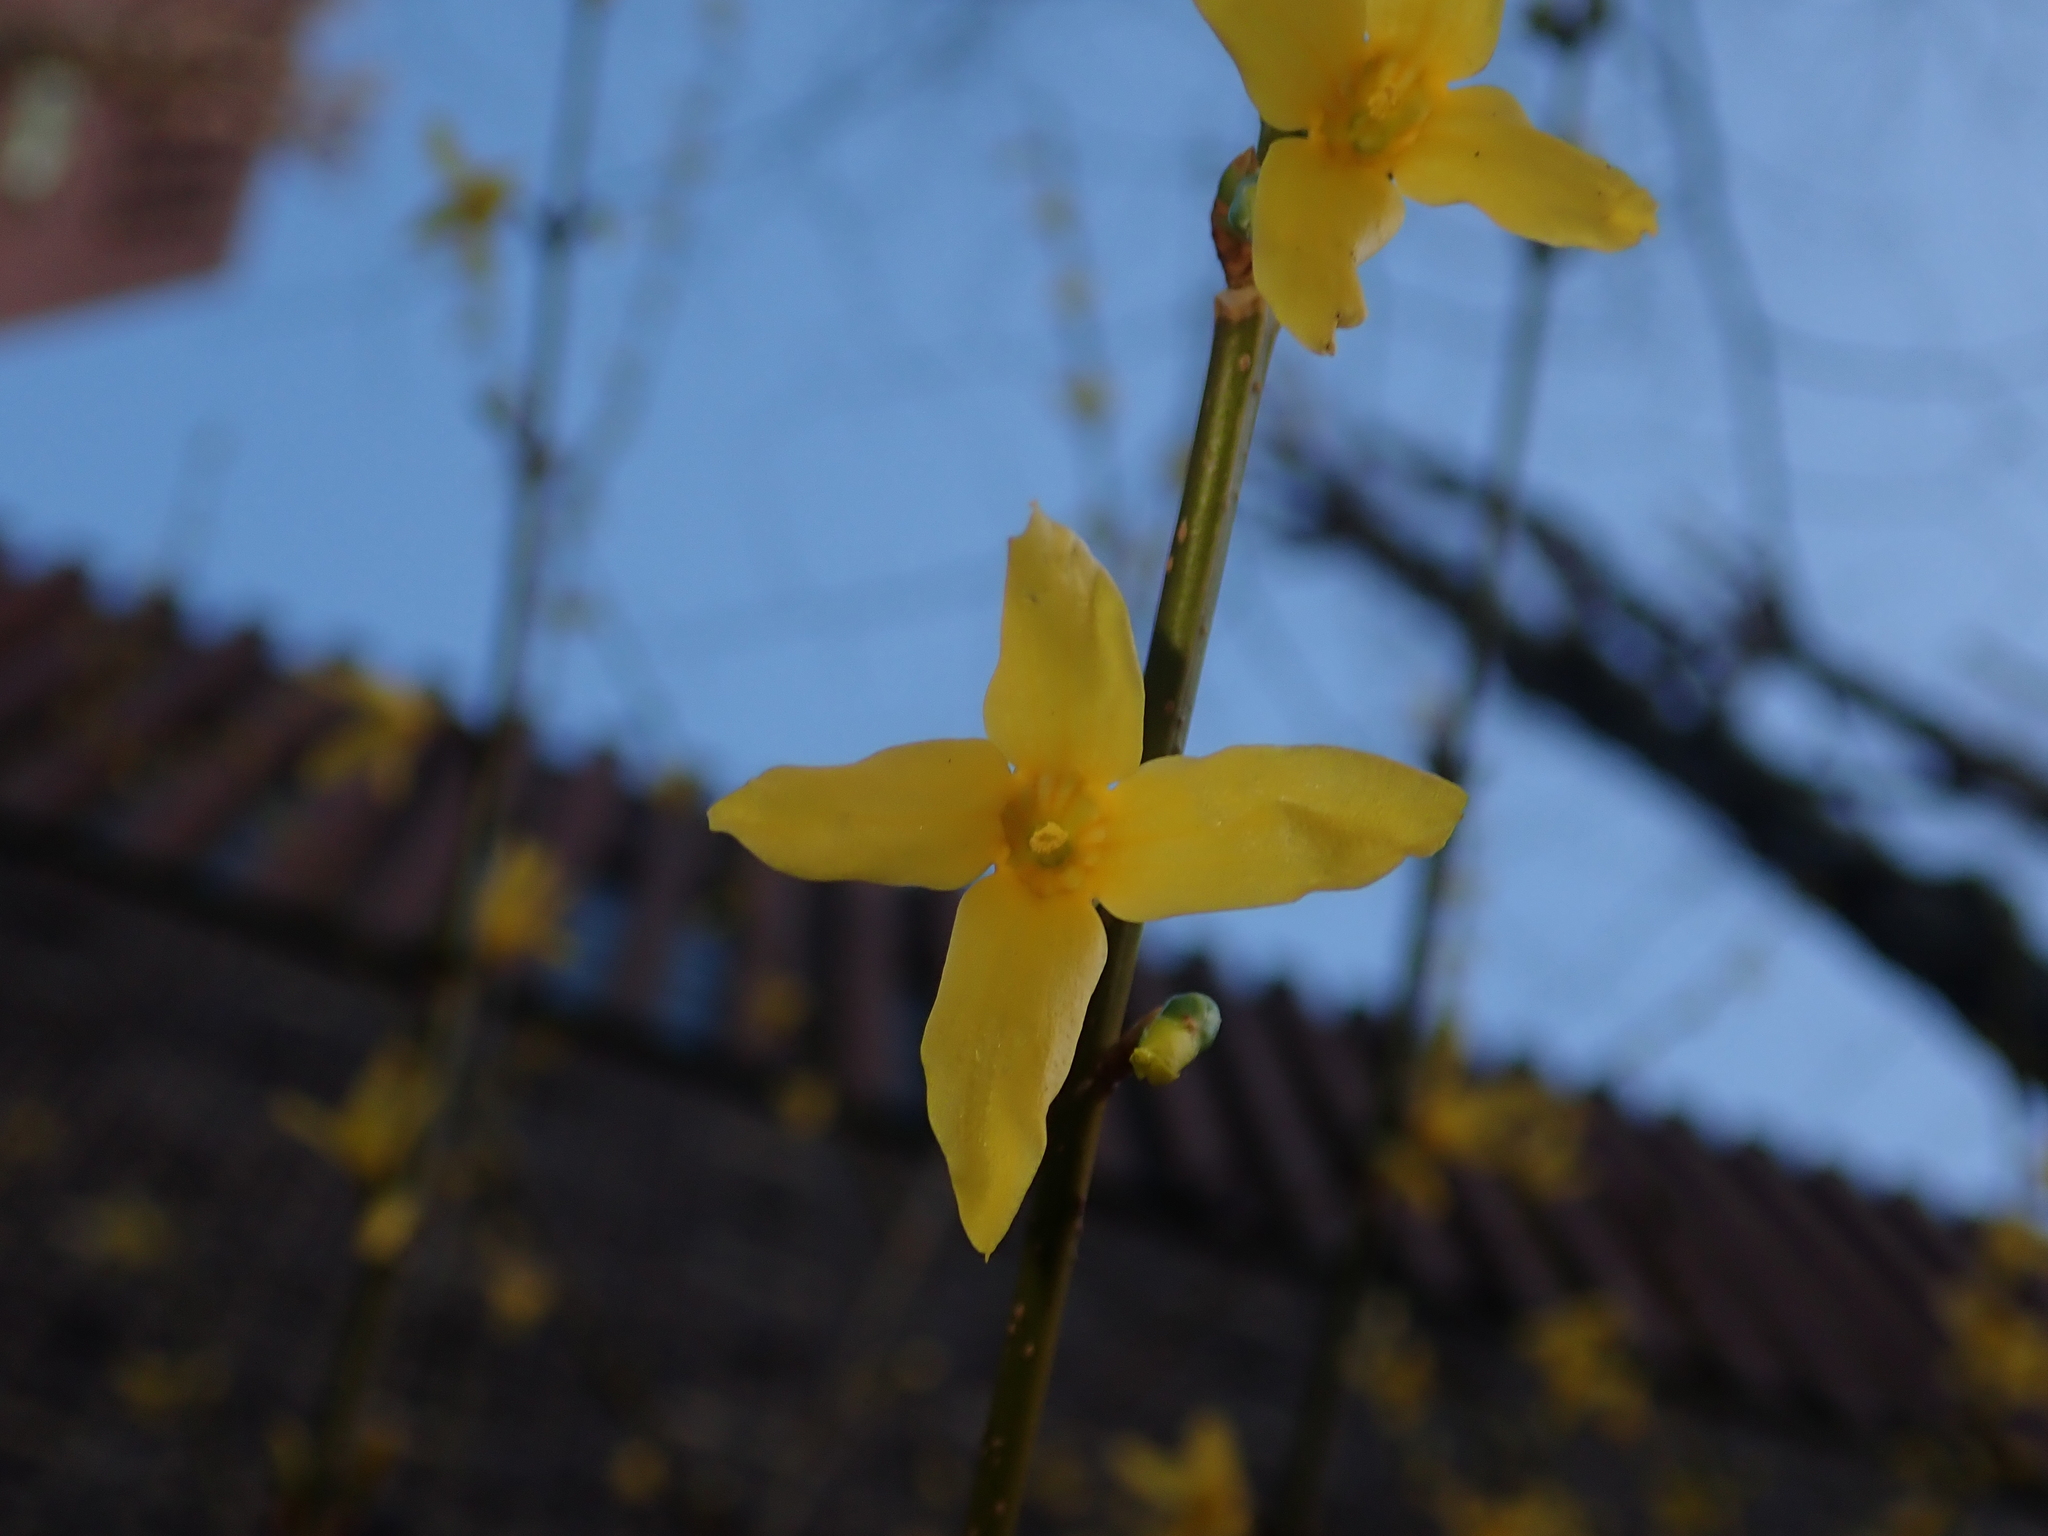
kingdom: Plantae
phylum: Tracheophyta
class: Magnoliopsida
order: Lamiales
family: Oleaceae
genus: Forsythia
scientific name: Forsythia intermedia
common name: Forsythia
